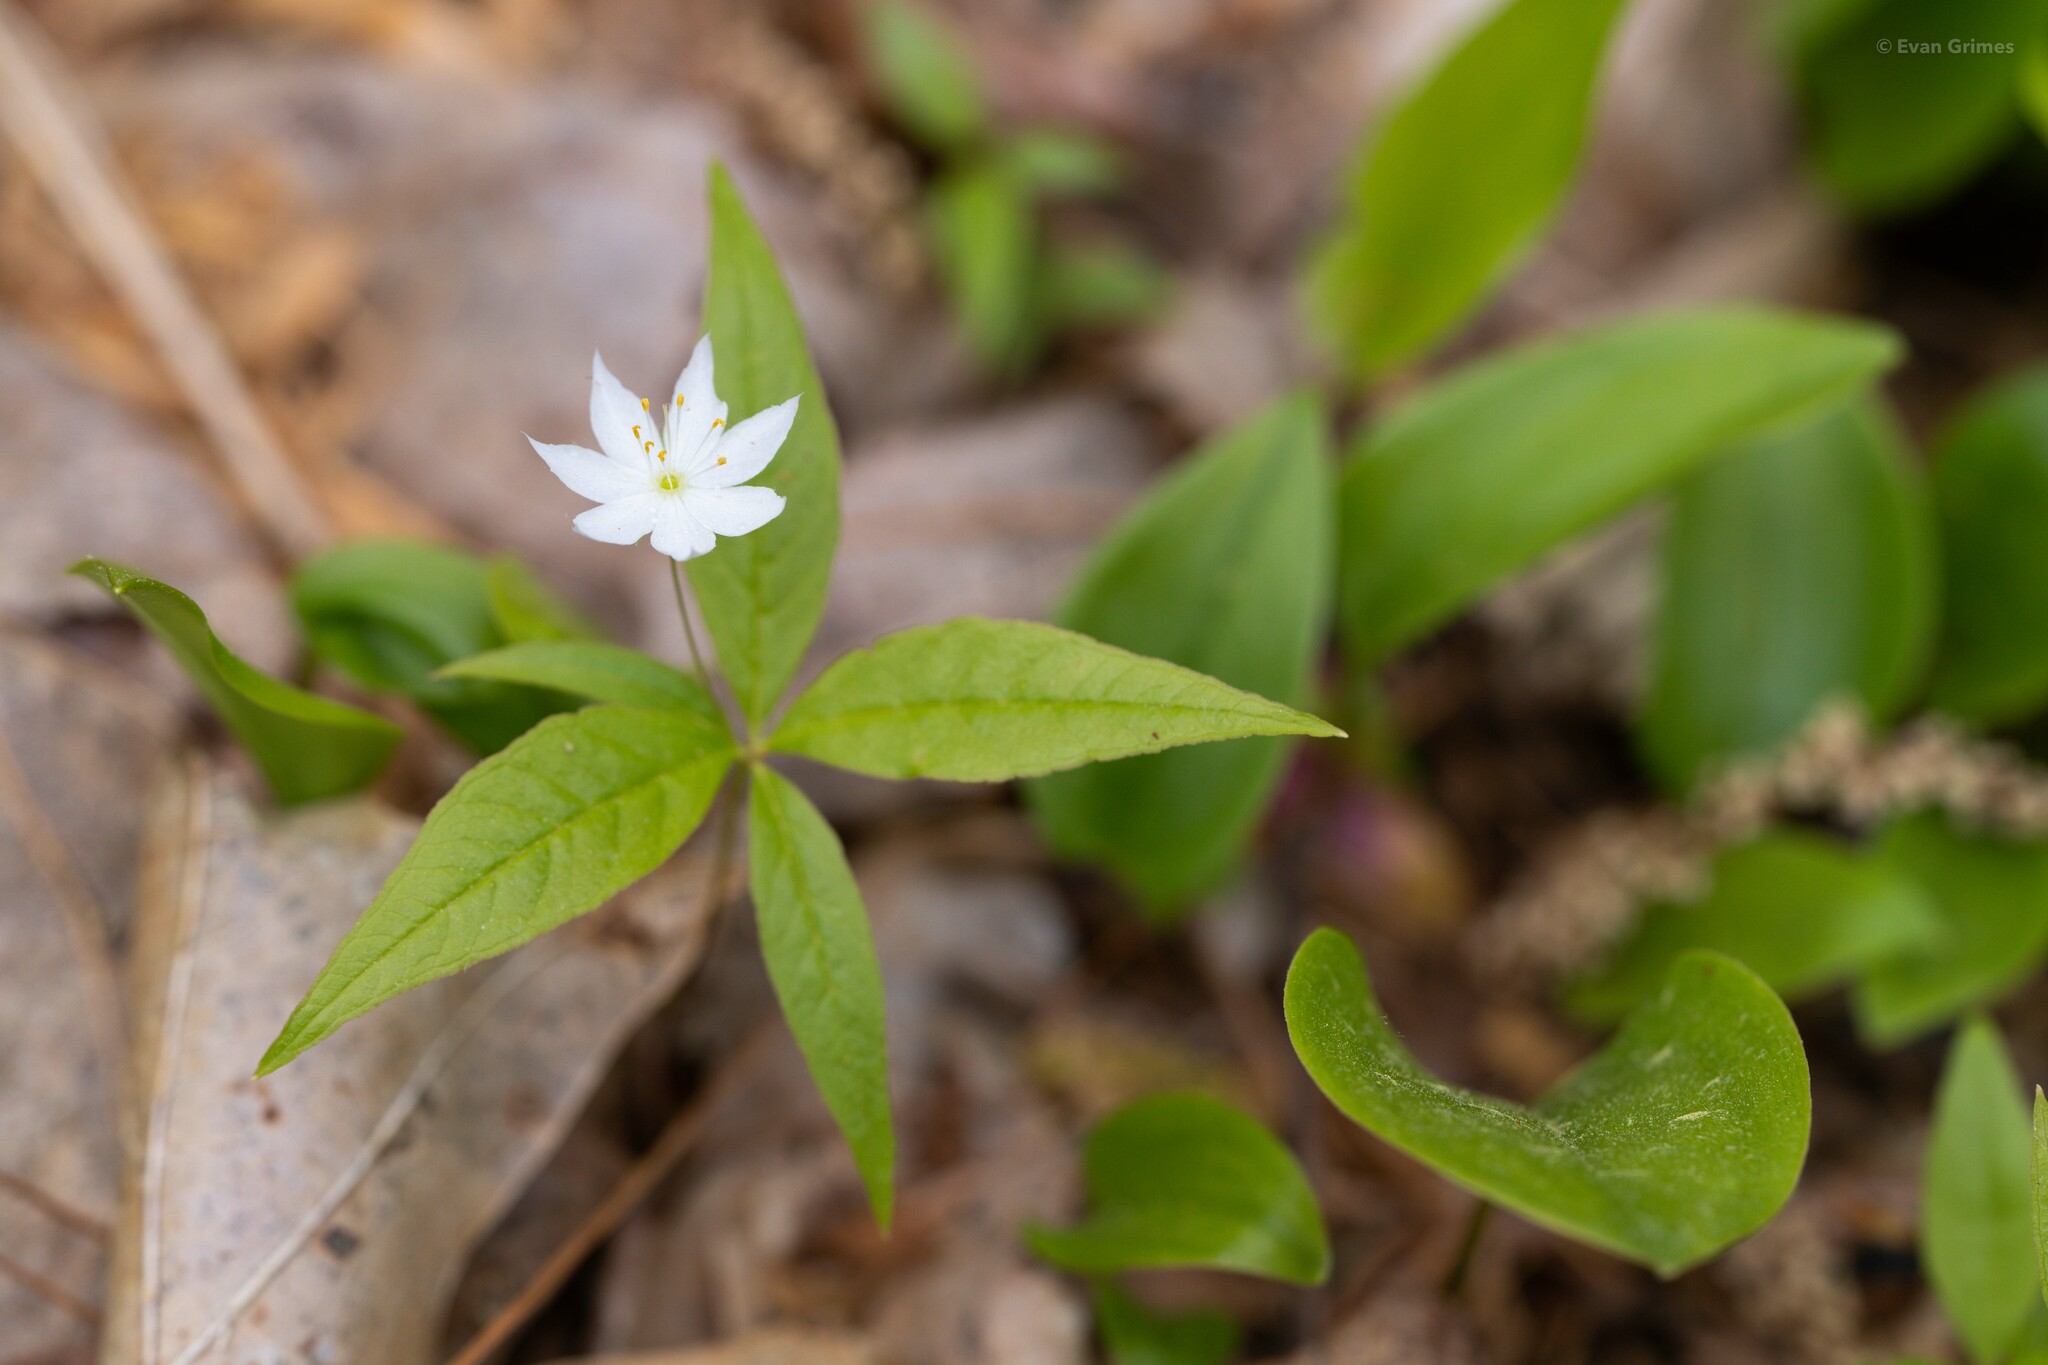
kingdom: Plantae
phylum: Tracheophyta
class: Magnoliopsida
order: Ericales
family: Primulaceae
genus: Lysimachia
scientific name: Lysimachia borealis
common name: American starflower
